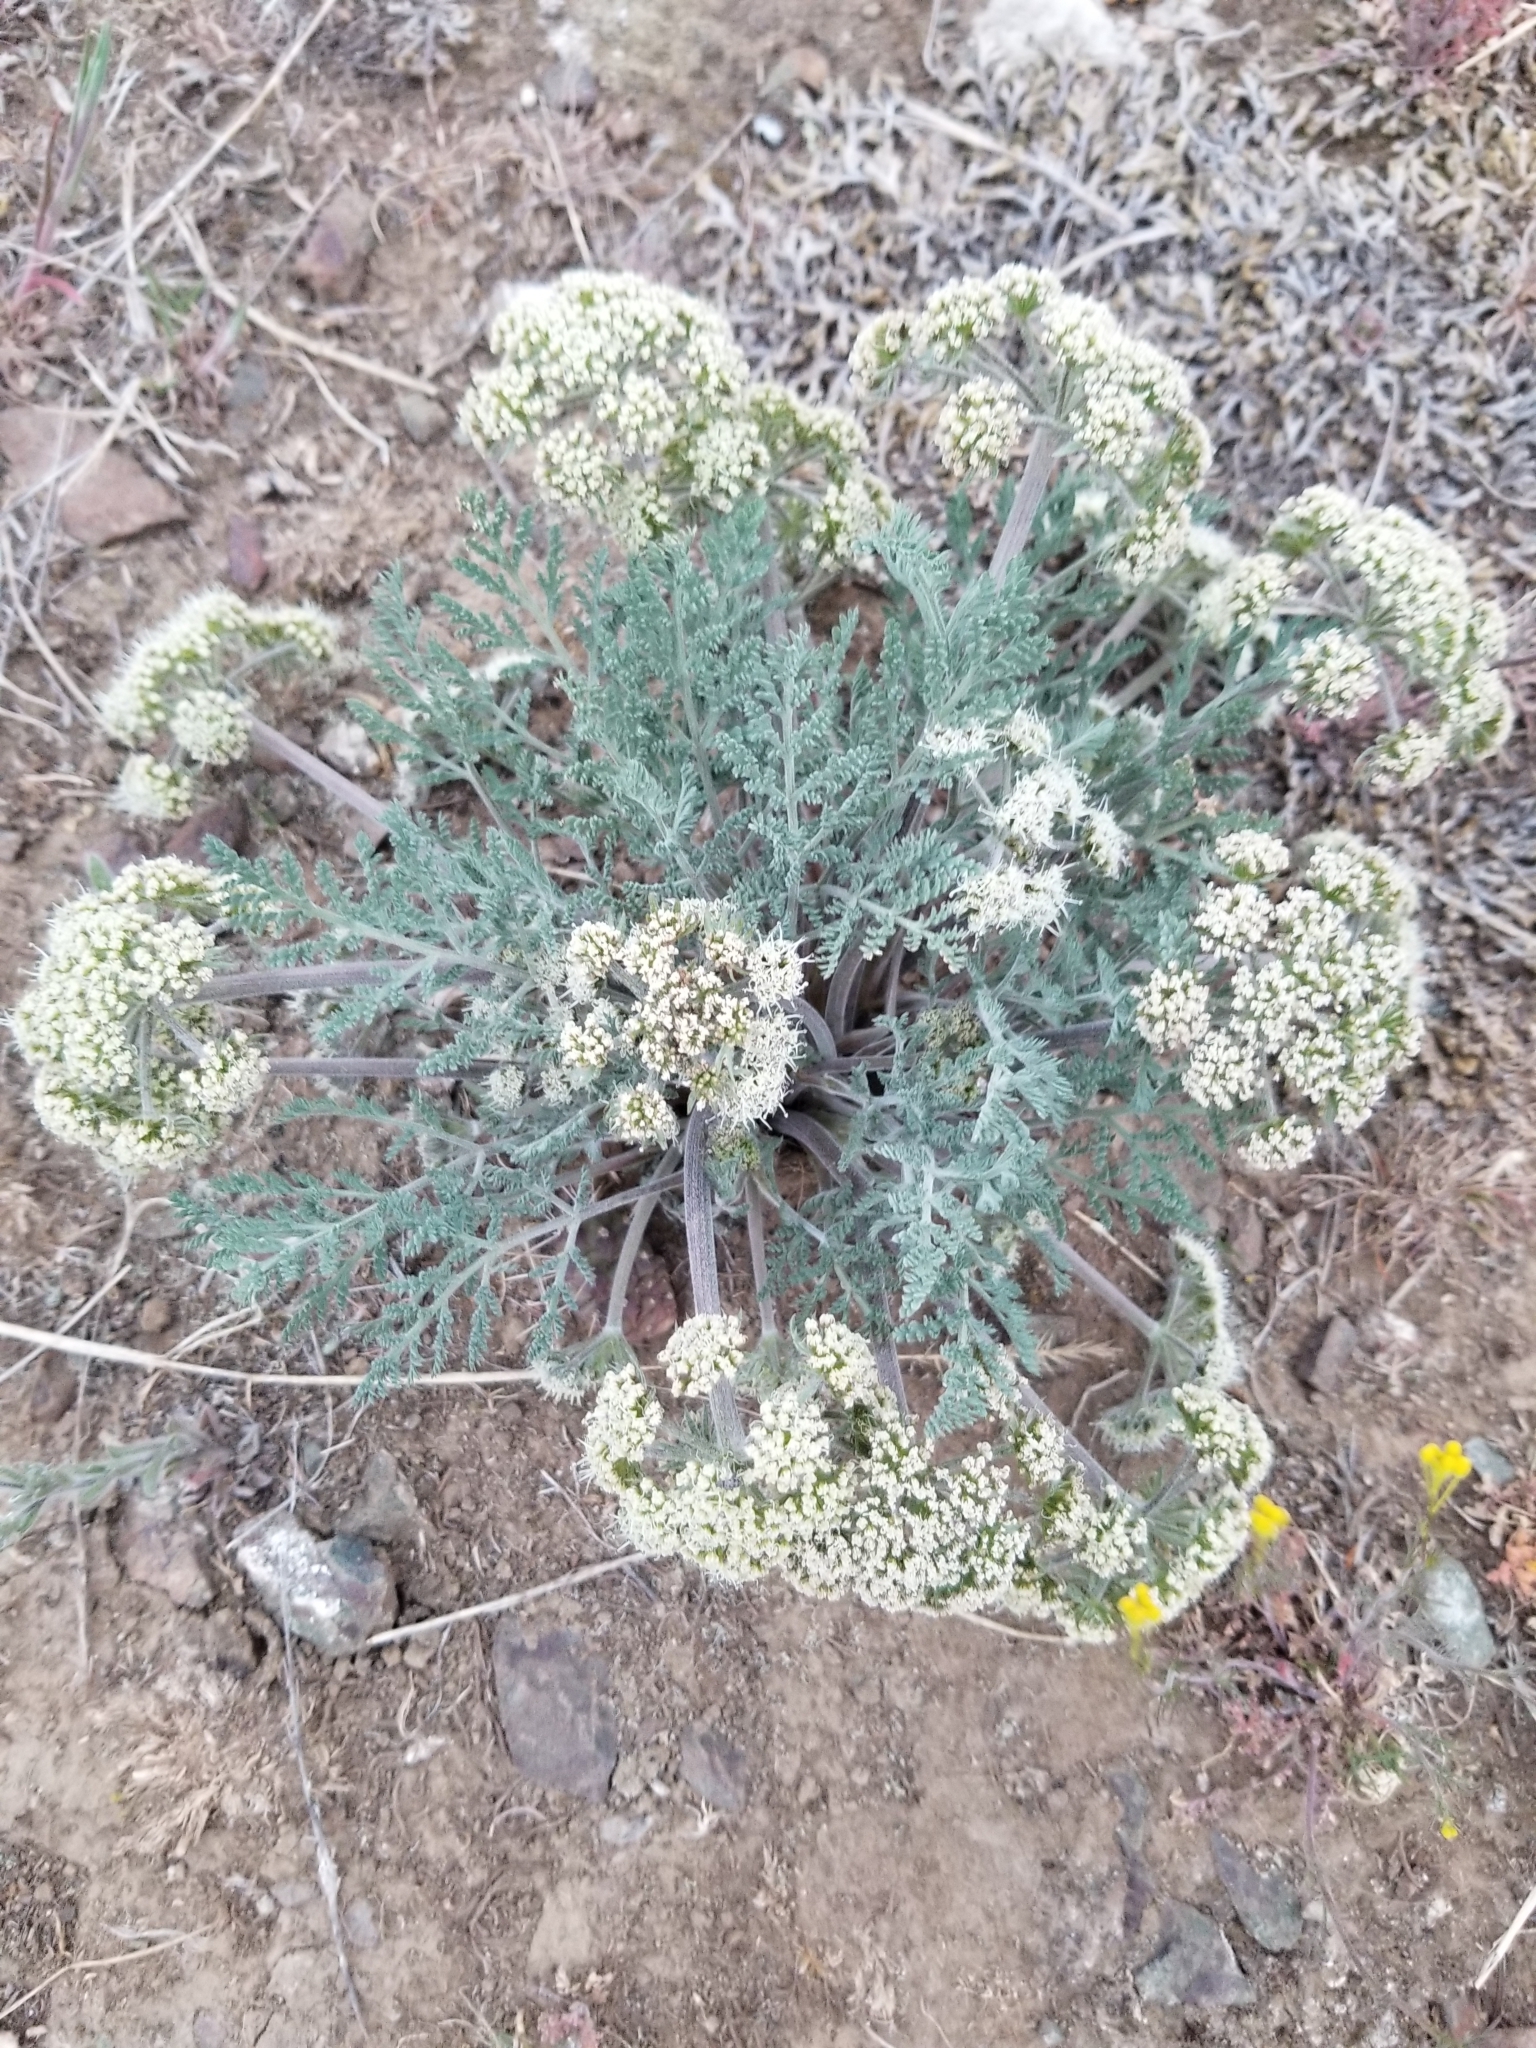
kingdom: Plantae
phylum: Tracheophyta
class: Magnoliopsida
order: Apiales
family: Apiaceae
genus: Lomatium
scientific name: Lomatium macrocarpum
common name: Big-seed biscuitroot
